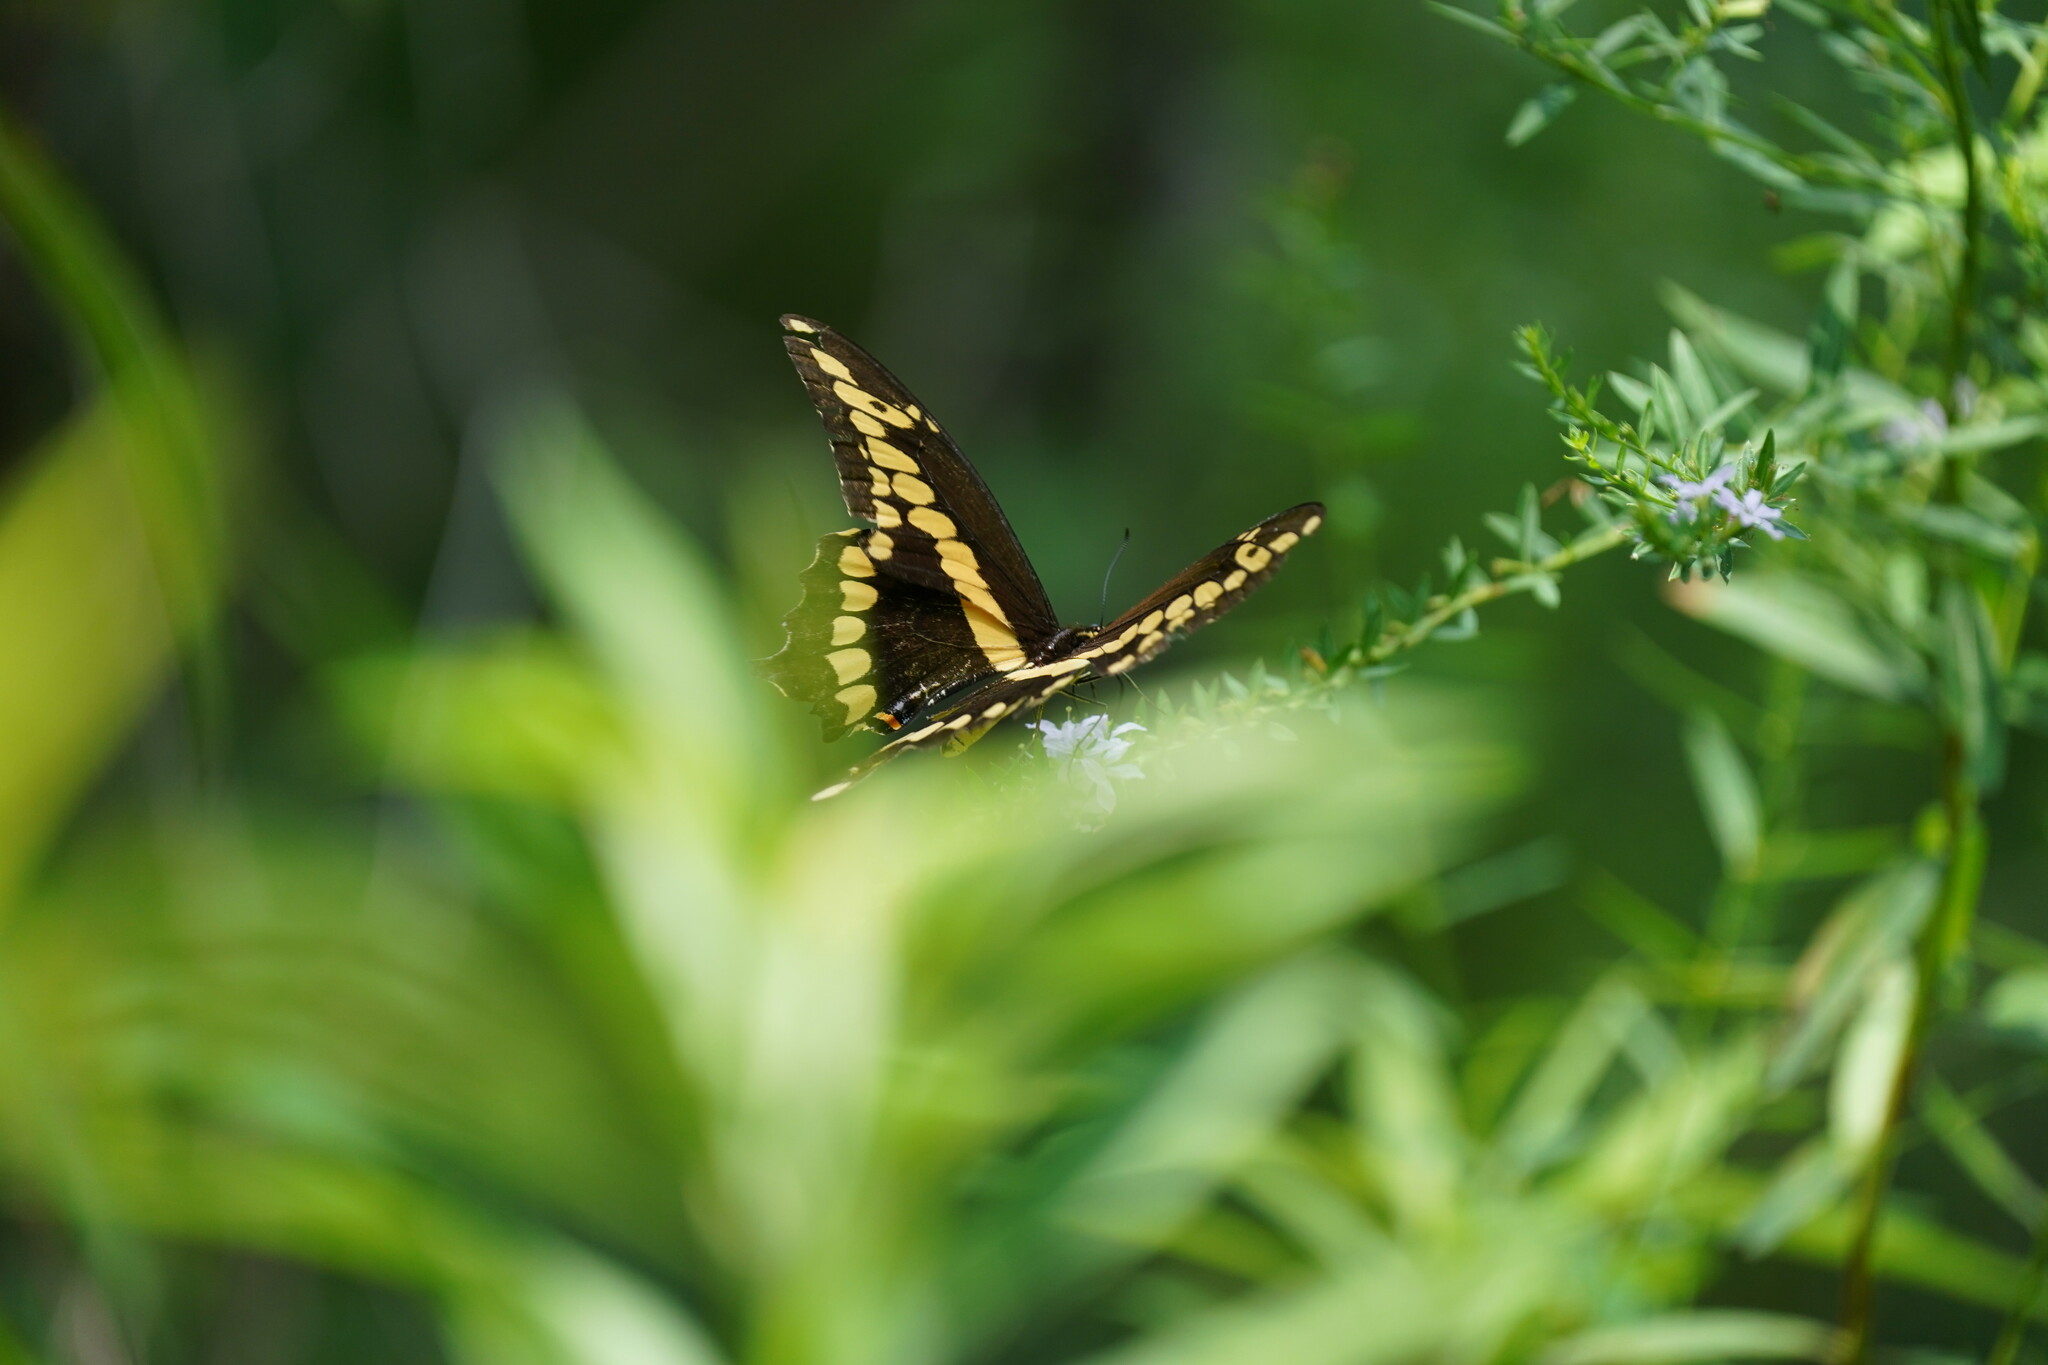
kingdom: Animalia
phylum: Arthropoda
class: Insecta
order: Lepidoptera
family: Papilionidae
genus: Papilio
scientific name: Papilio cresphontes
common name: Giant swallowtail
